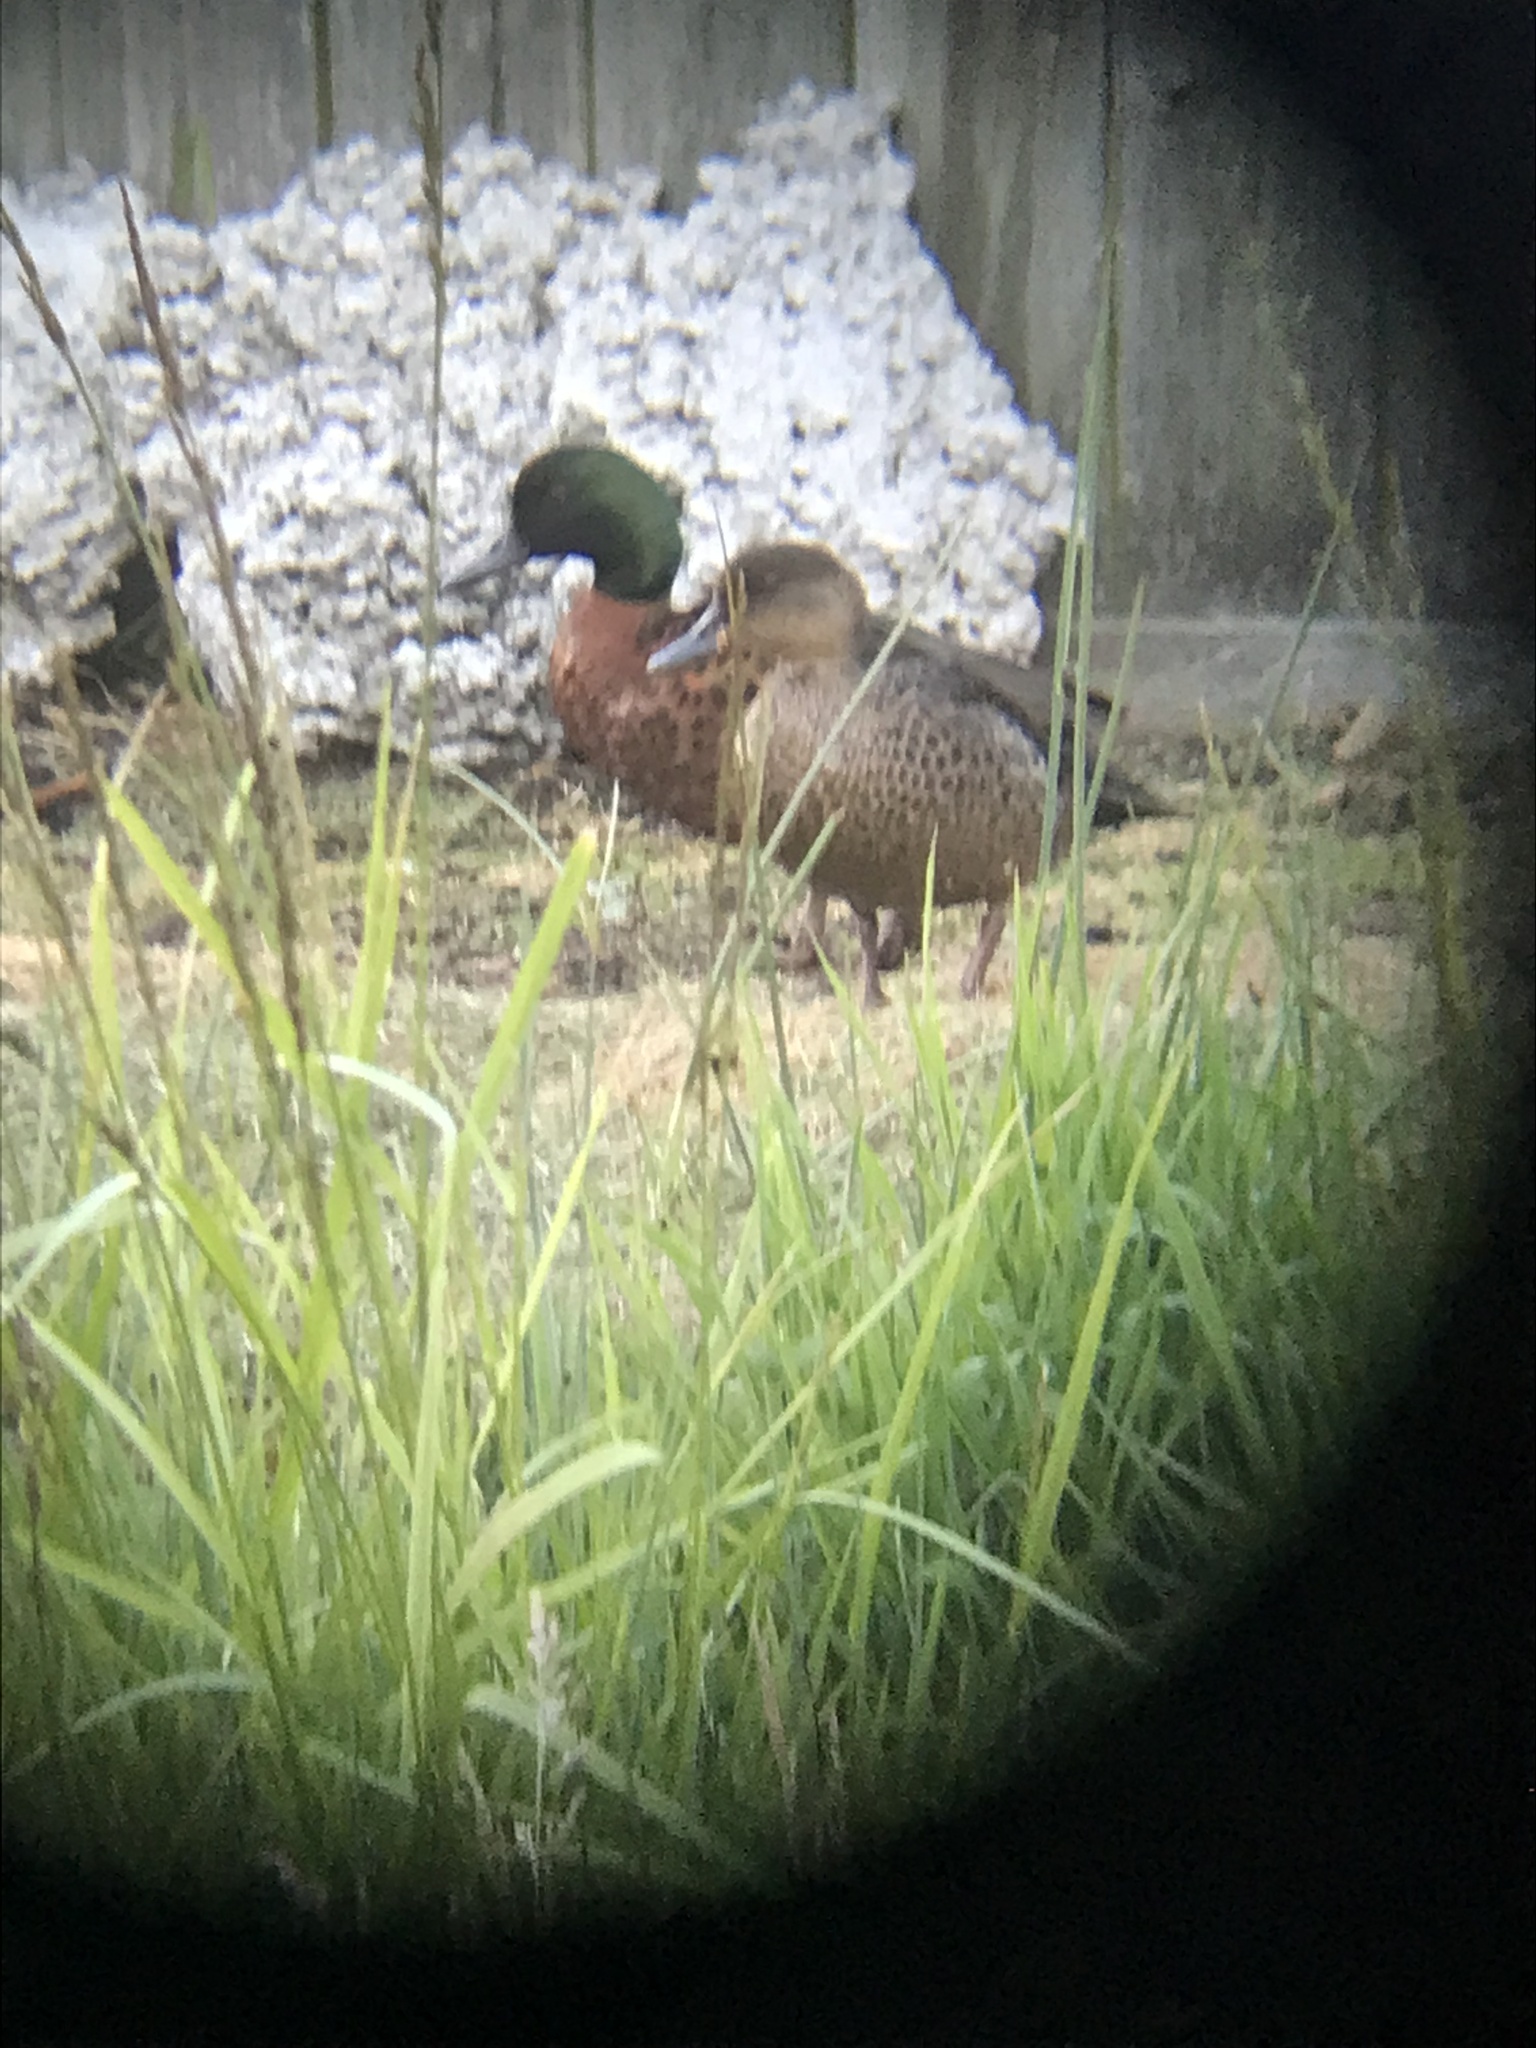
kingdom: Animalia
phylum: Chordata
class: Aves
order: Anseriformes
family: Anatidae
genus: Anas
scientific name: Anas castanea
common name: Chestnut teal
